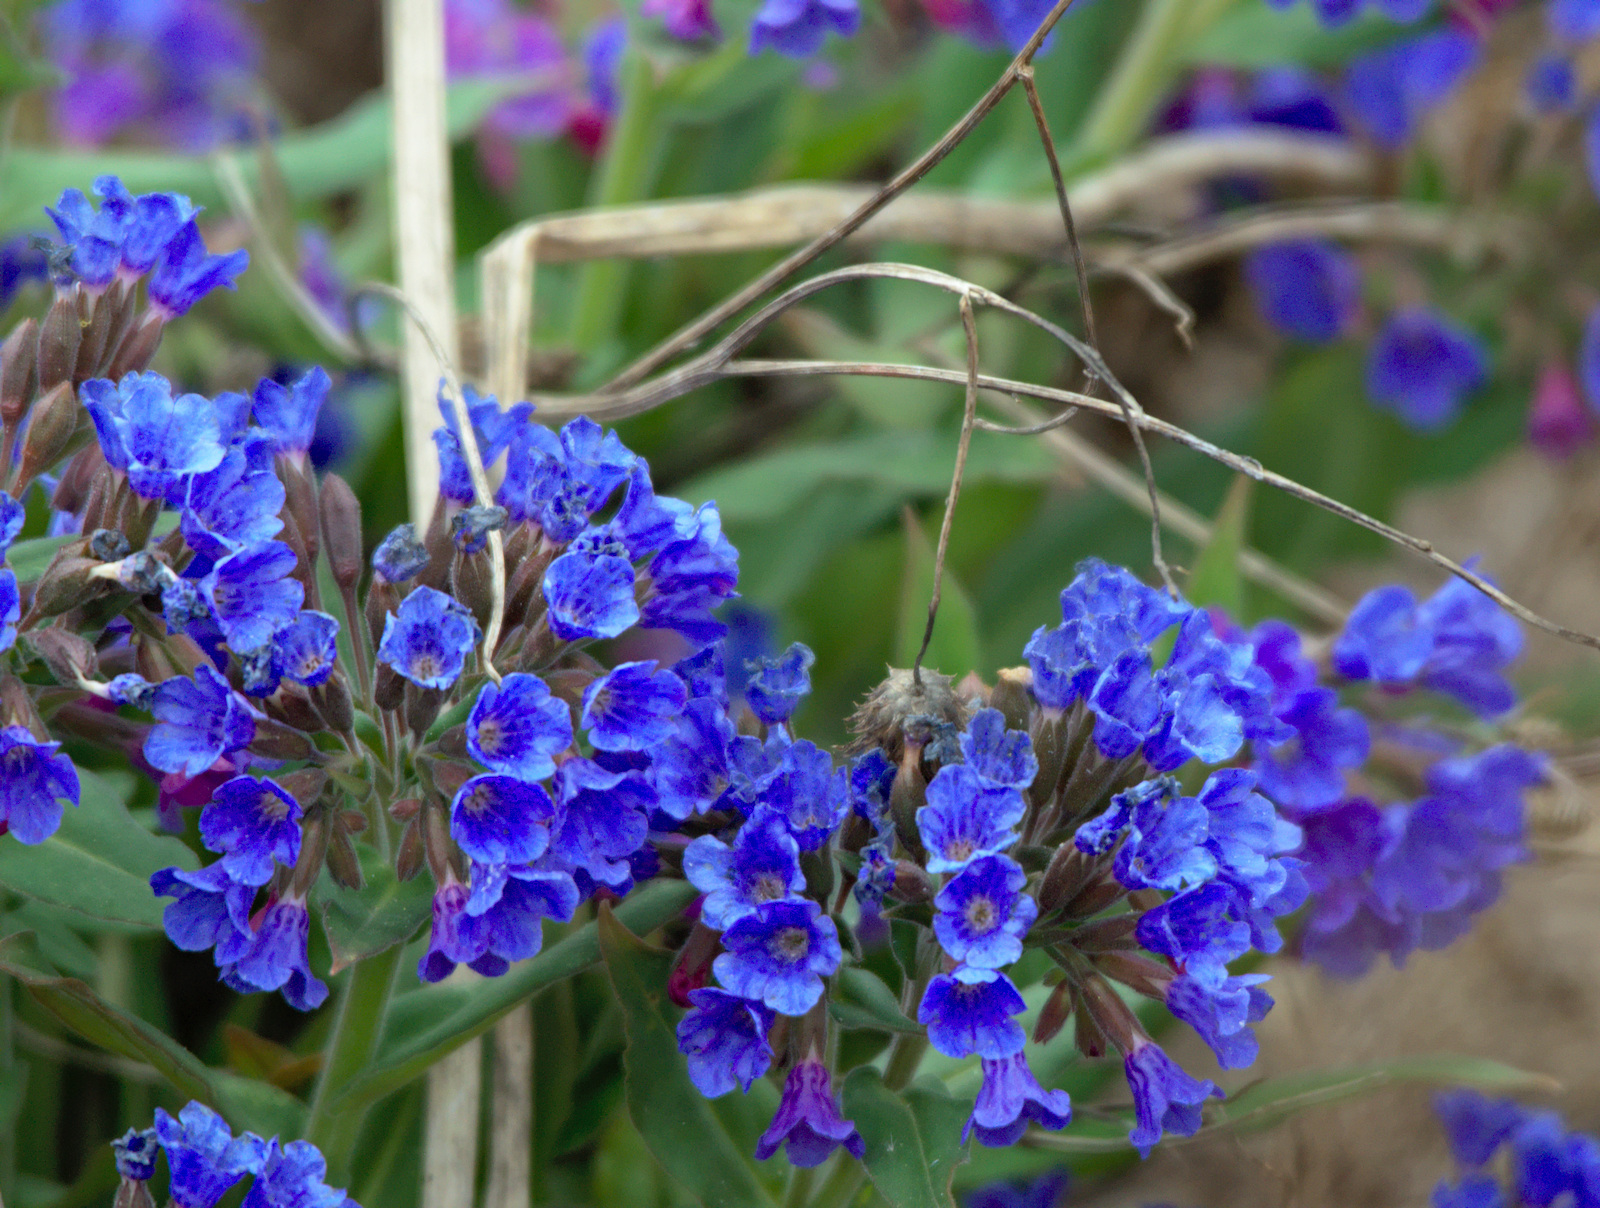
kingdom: Plantae
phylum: Tracheophyta
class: Magnoliopsida
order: Boraginales
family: Boraginaceae
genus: Pulmonaria
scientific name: Pulmonaria mollis
